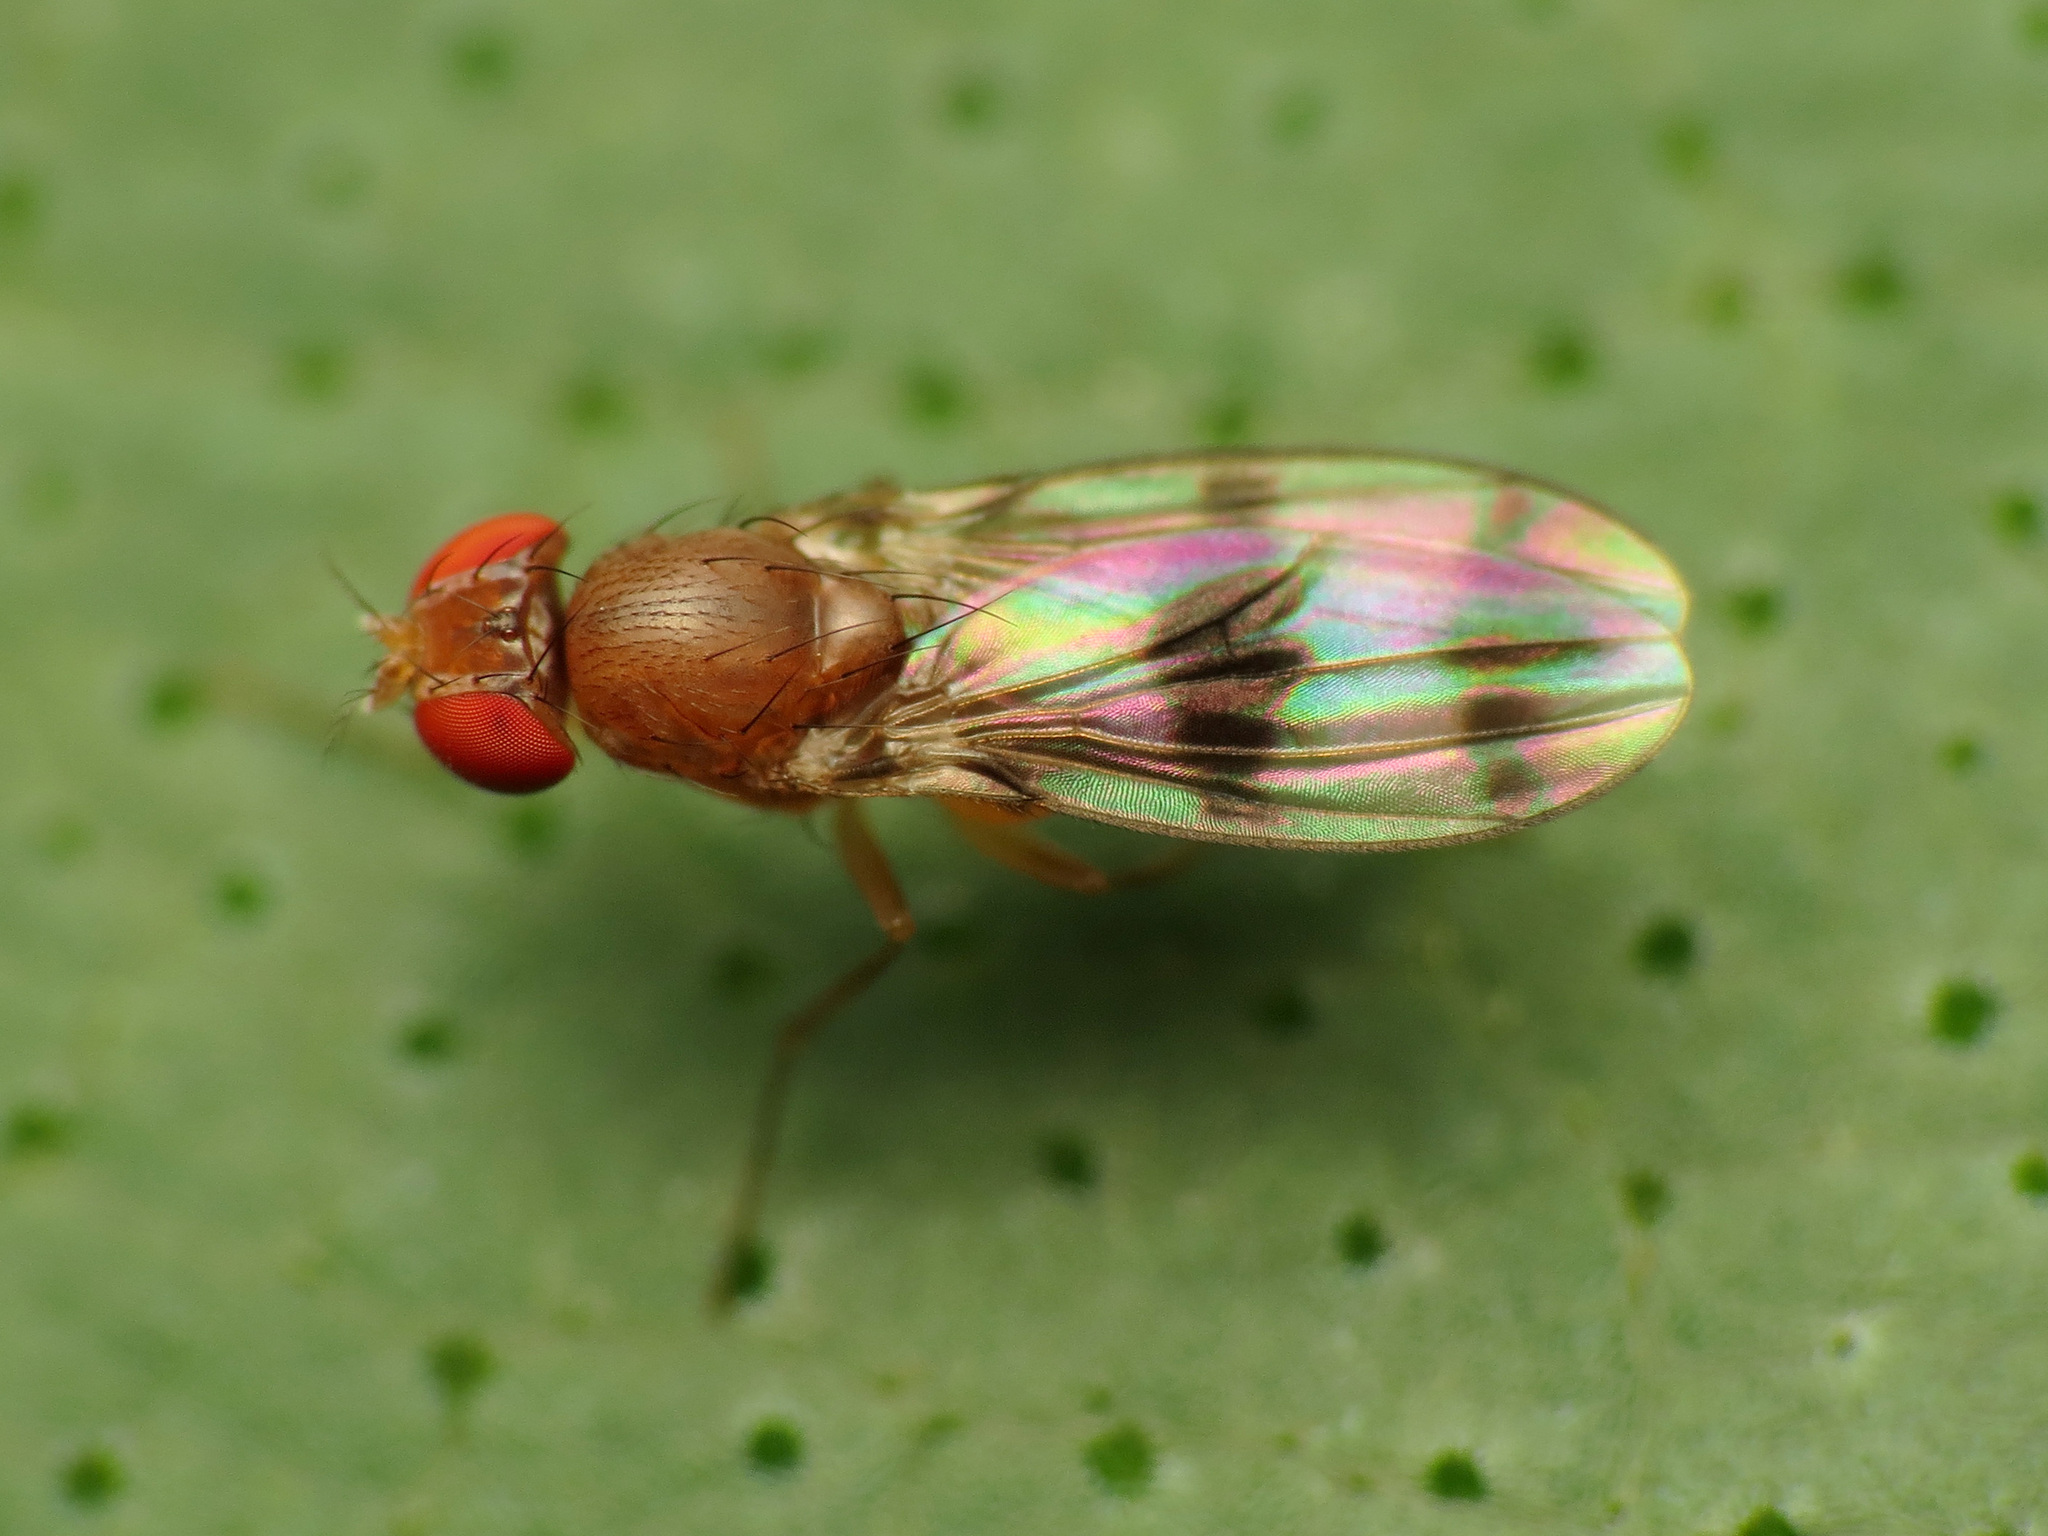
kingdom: Animalia
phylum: Arthropoda
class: Insecta
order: Diptera
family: Drosophilidae
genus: Chymomyza
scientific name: Chymomyza amoena
